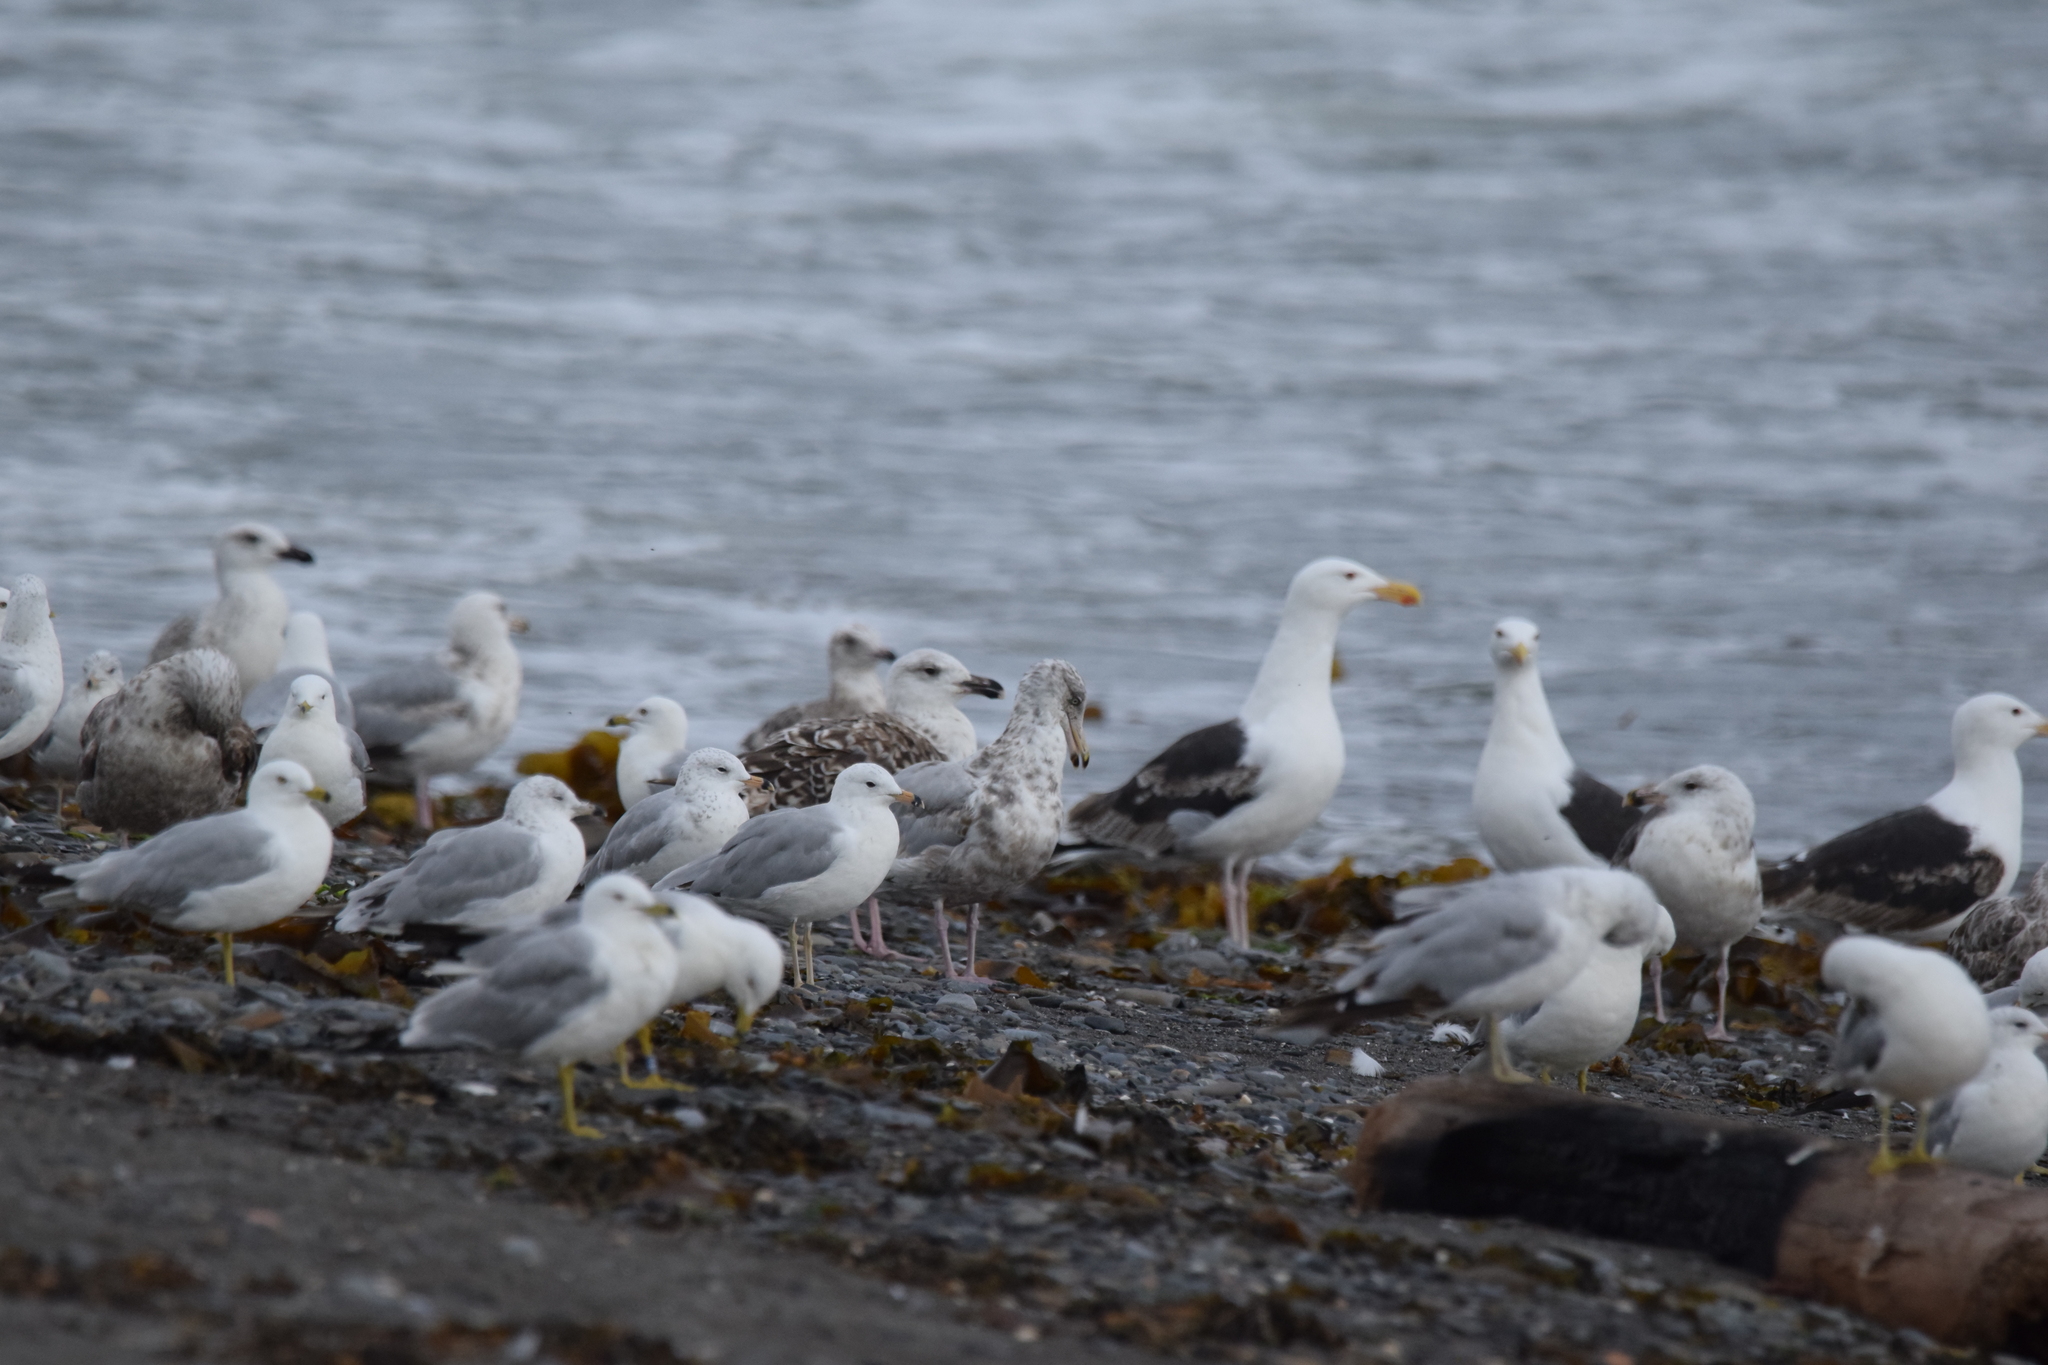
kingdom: Animalia
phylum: Chordata
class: Aves
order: Charadriiformes
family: Laridae
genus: Larus
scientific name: Larus marinus
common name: Great black-backed gull
